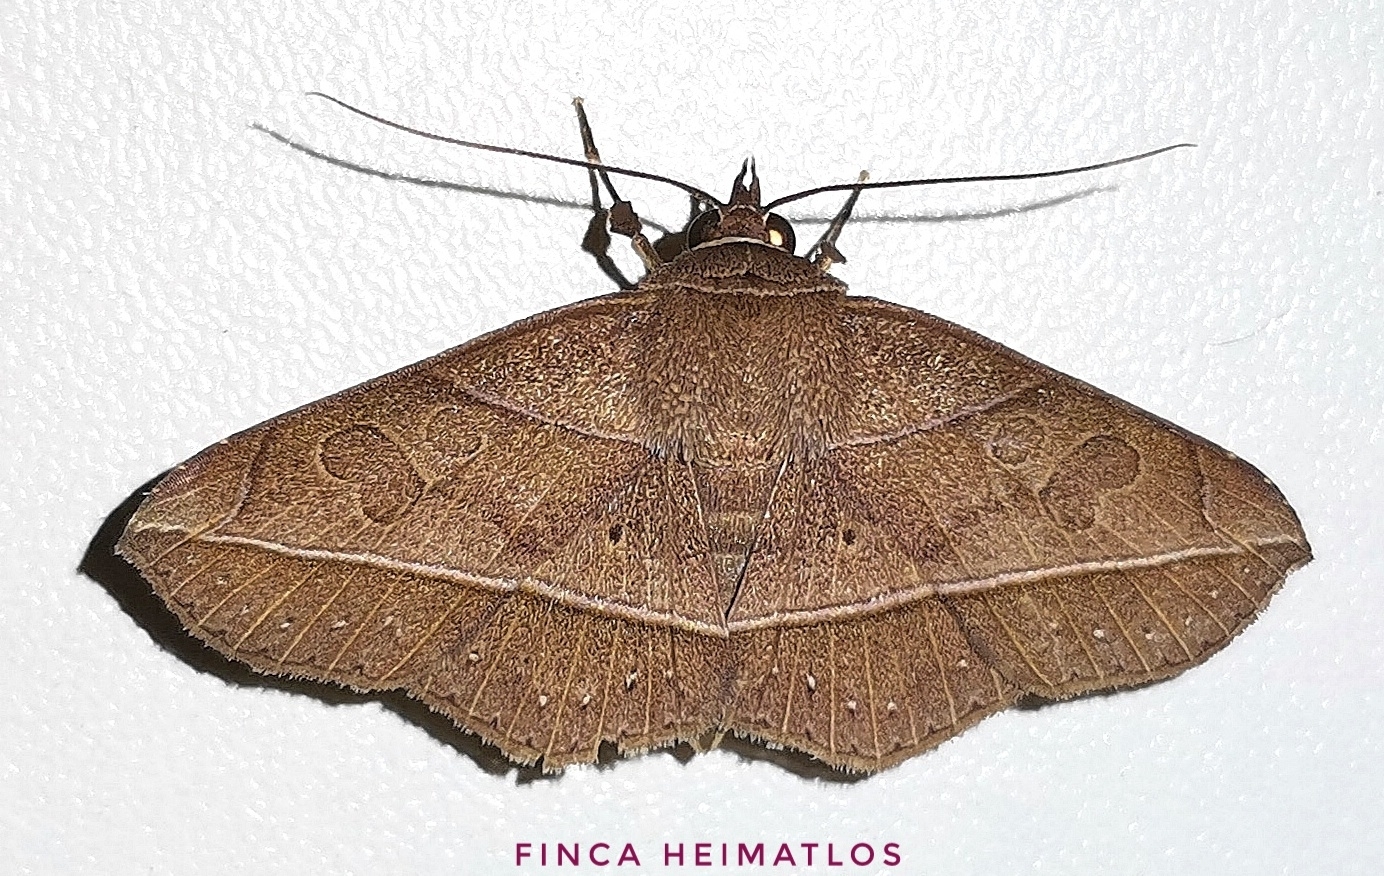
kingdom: Animalia
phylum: Arthropoda
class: Insecta
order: Lepidoptera
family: Erebidae
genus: Sanys
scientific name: Sanys irrosea
